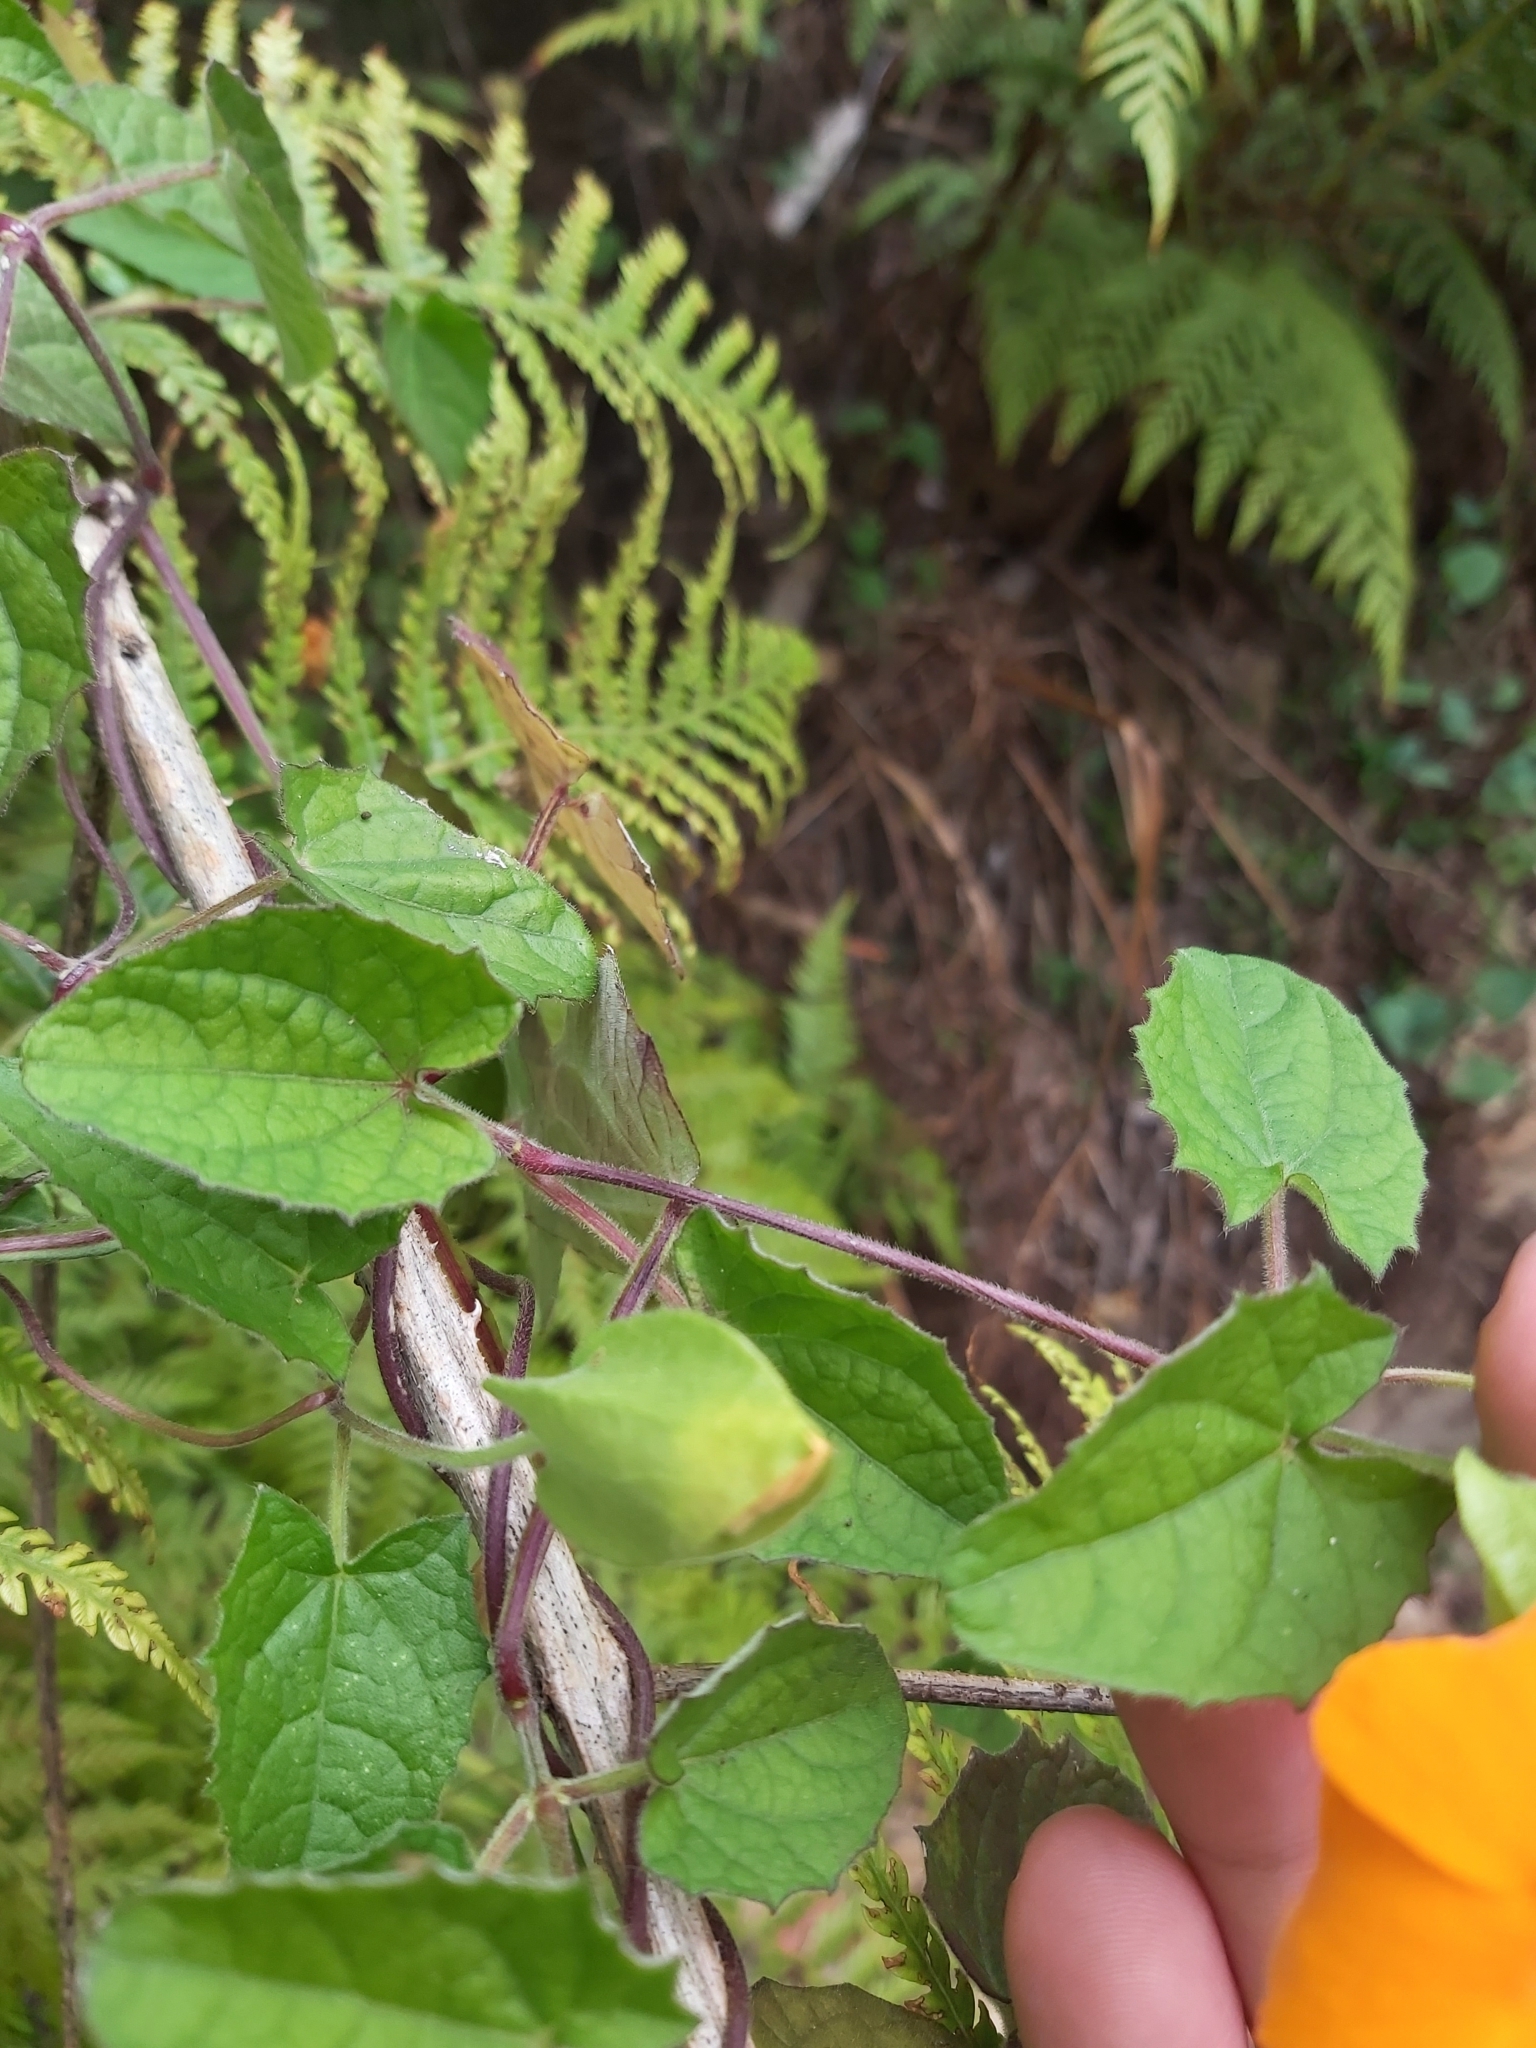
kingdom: Plantae
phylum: Tracheophyta
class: Magnoliopsida
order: Lamiales
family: Acanthaceae
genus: Thunbergia
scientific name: Thunbergia alata
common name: Blackeyed susan vine
